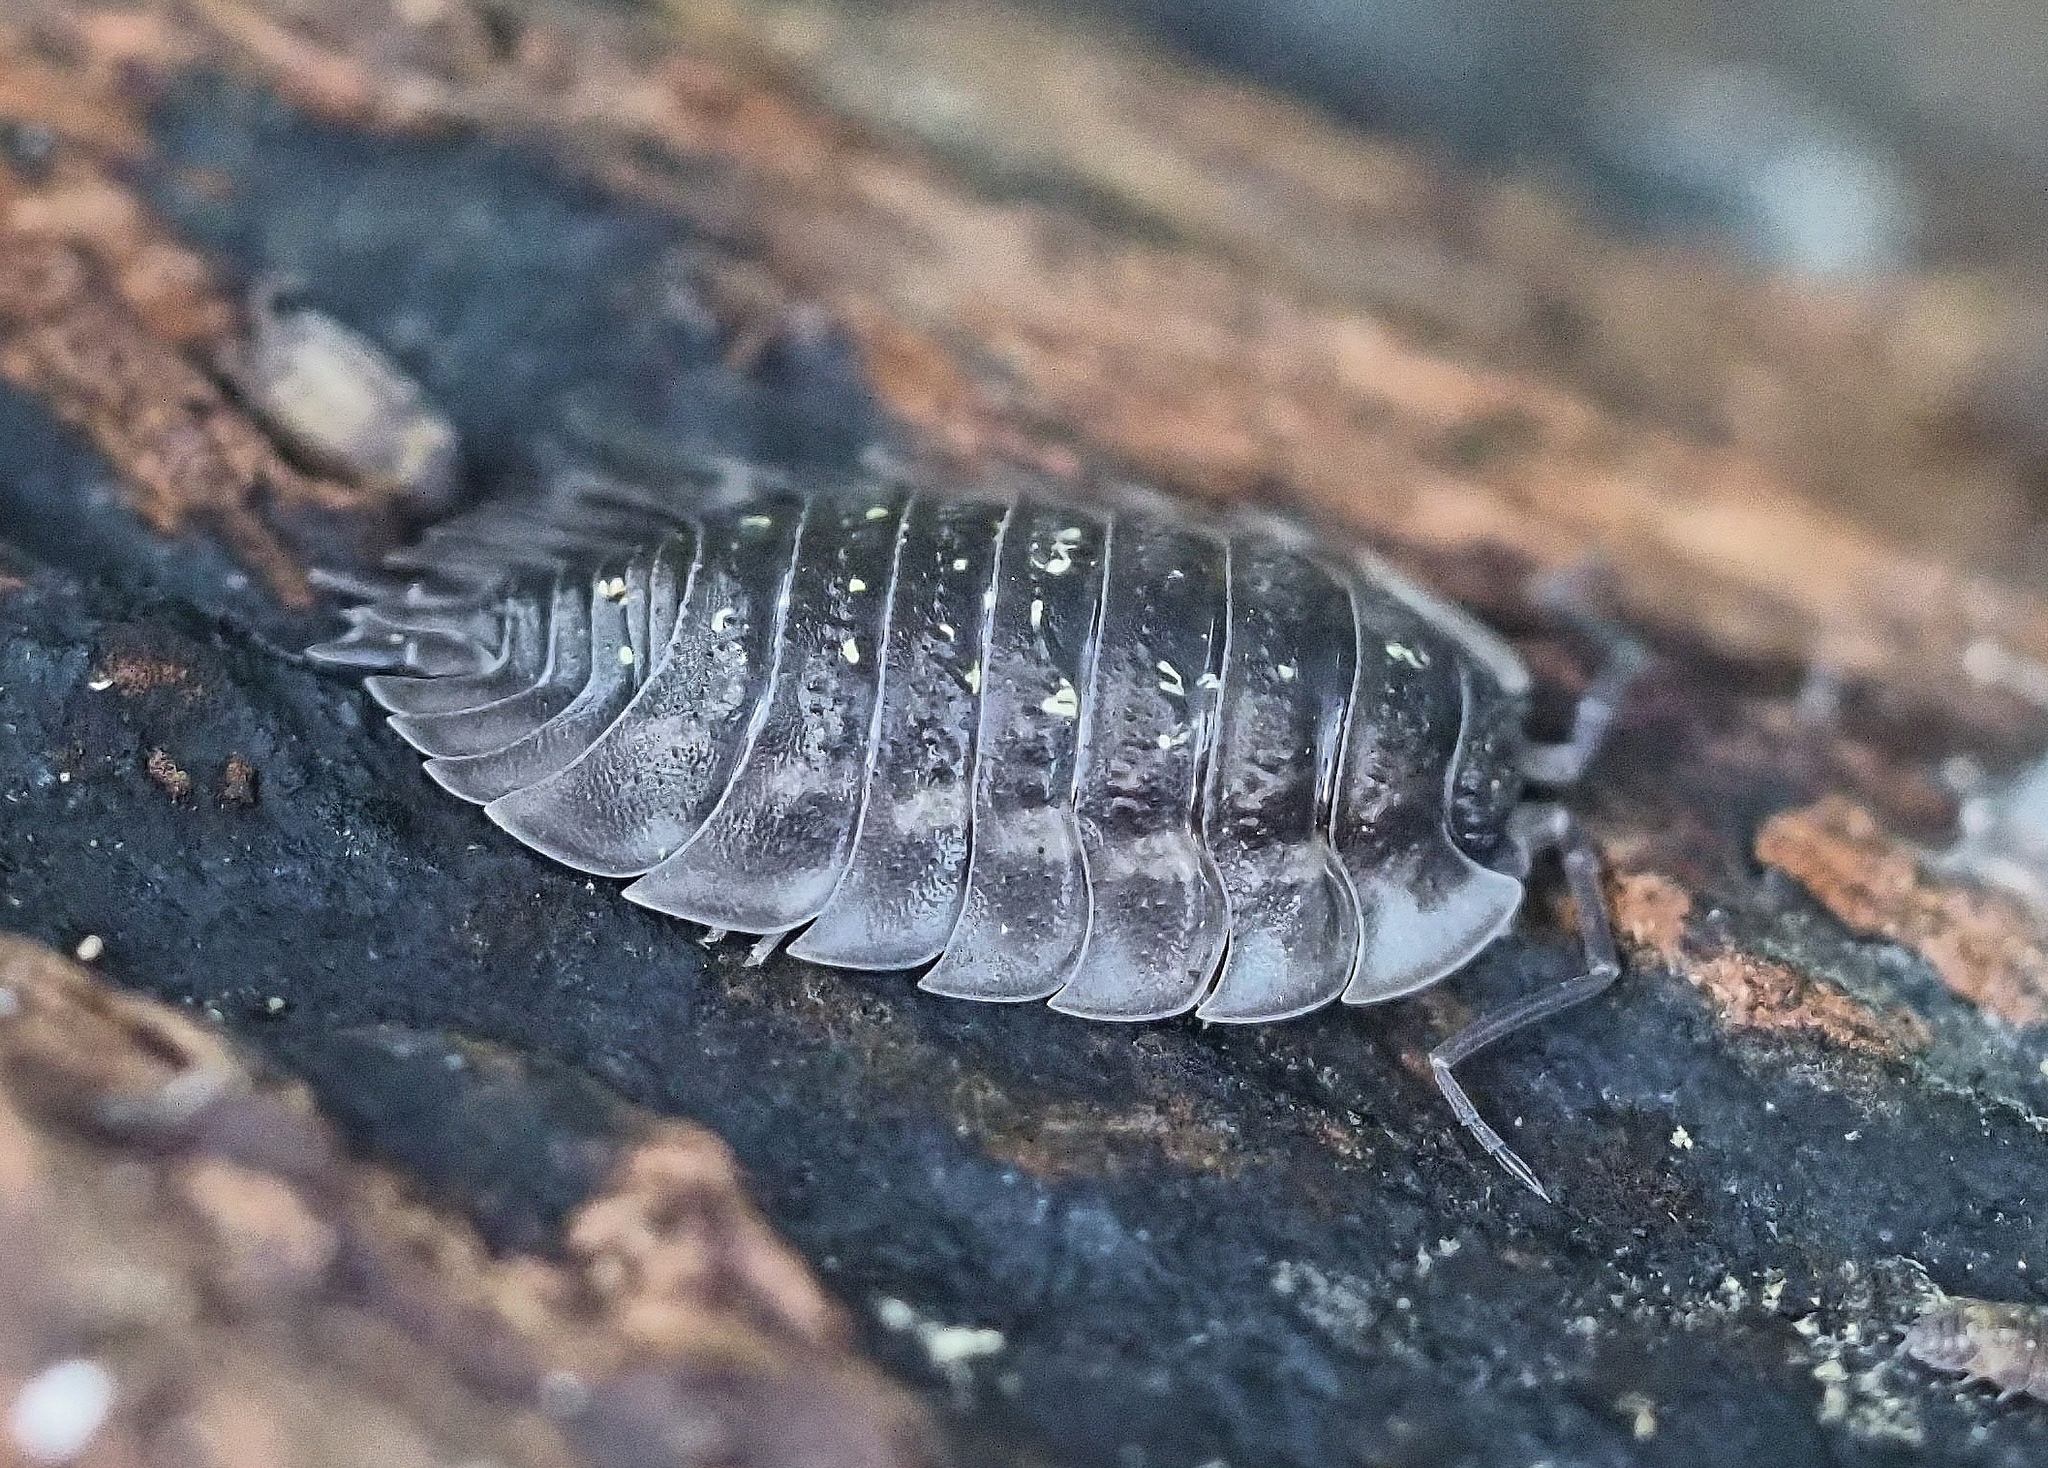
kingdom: Animalia
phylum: Arthropoda
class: Malacostraca
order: Isopoda
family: Oniscidae
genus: Oniscus
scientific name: Oniscus asellus
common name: Common shiny woodlouse
